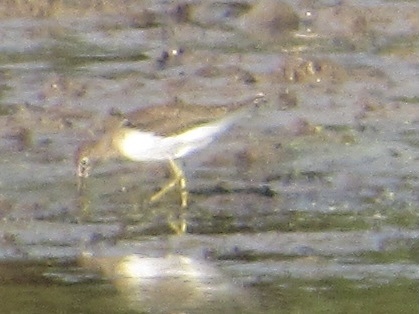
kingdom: Animalia
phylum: Chordata
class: Aves
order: Charadriiformes
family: Scolopacidae
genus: Tringa
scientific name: Tringa solitaria
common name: Solitary sandpiper
